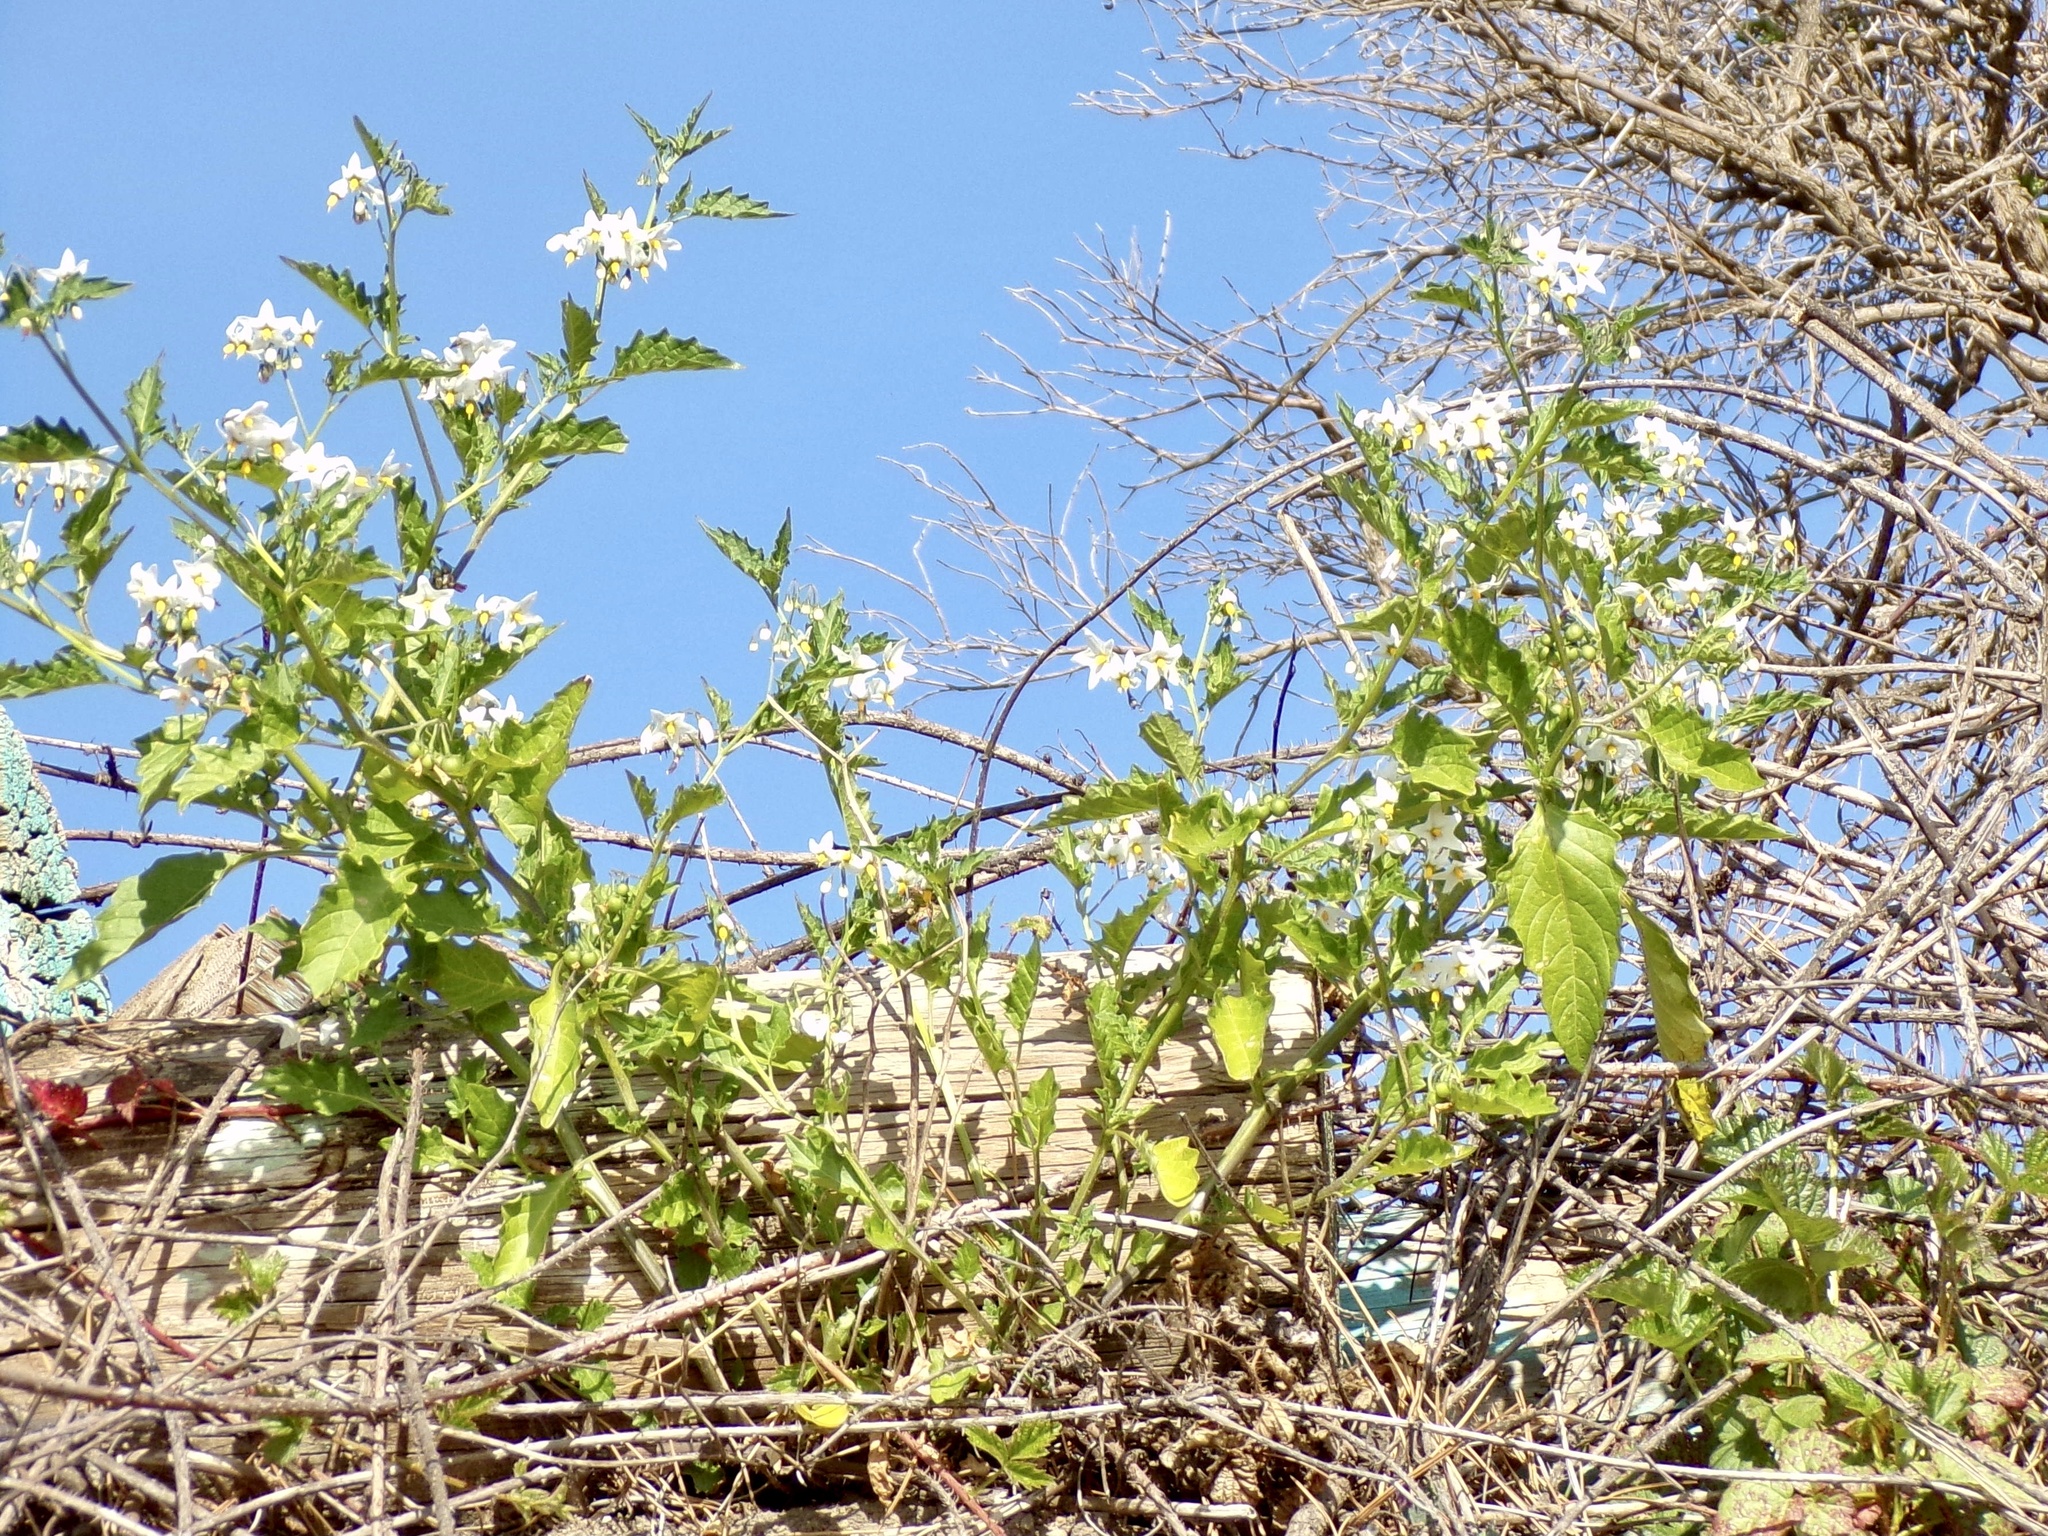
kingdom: Plantae
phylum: Tracheophyta
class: Magnoliopsida
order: Solanales
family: Solanaceae
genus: Solanum
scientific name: Solanum furcatum
